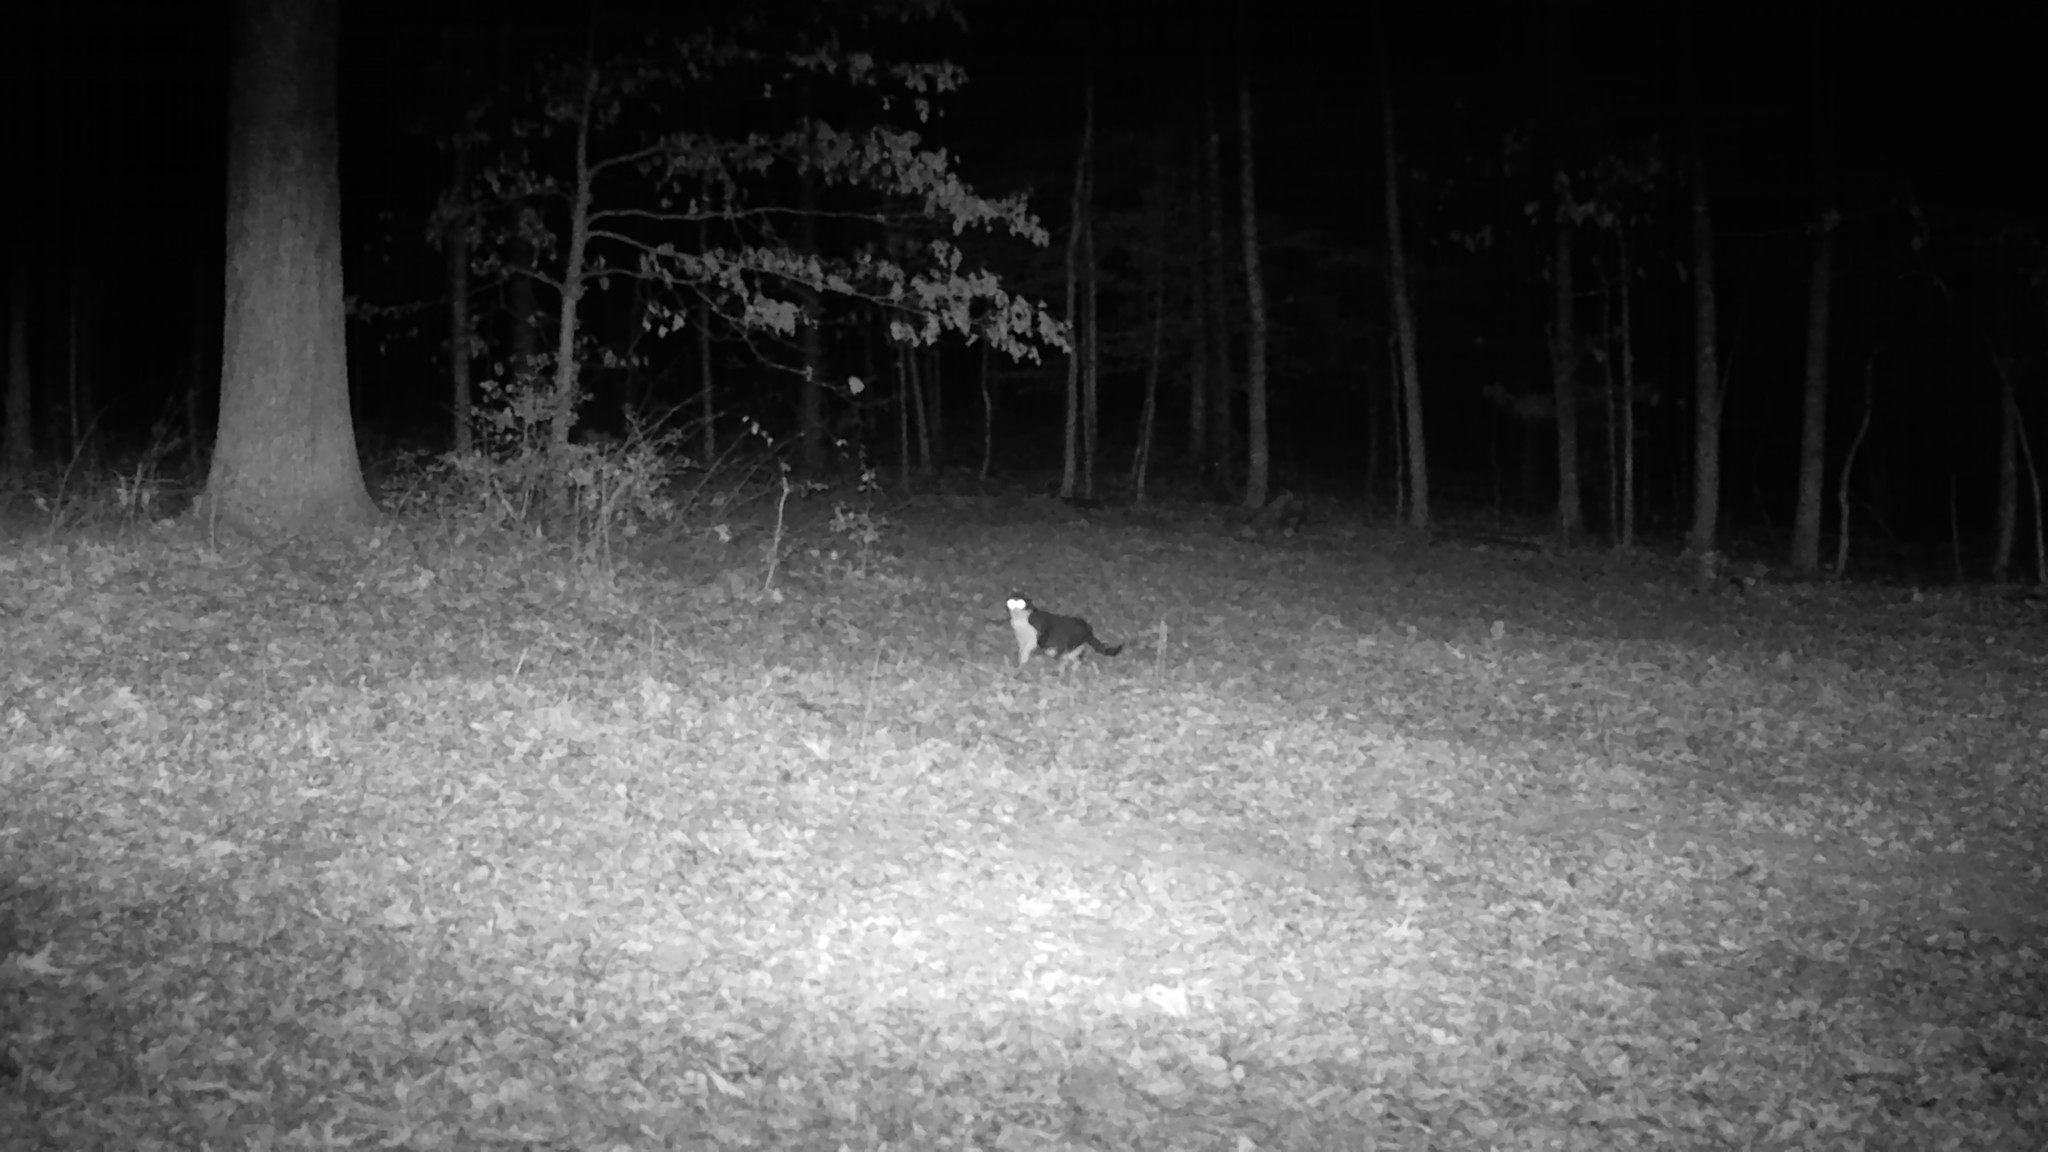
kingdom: Animalia
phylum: Chordata
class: Mammalia
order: Carnivora
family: Felidae
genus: Felis
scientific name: Felis catus
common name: Domestic cat
